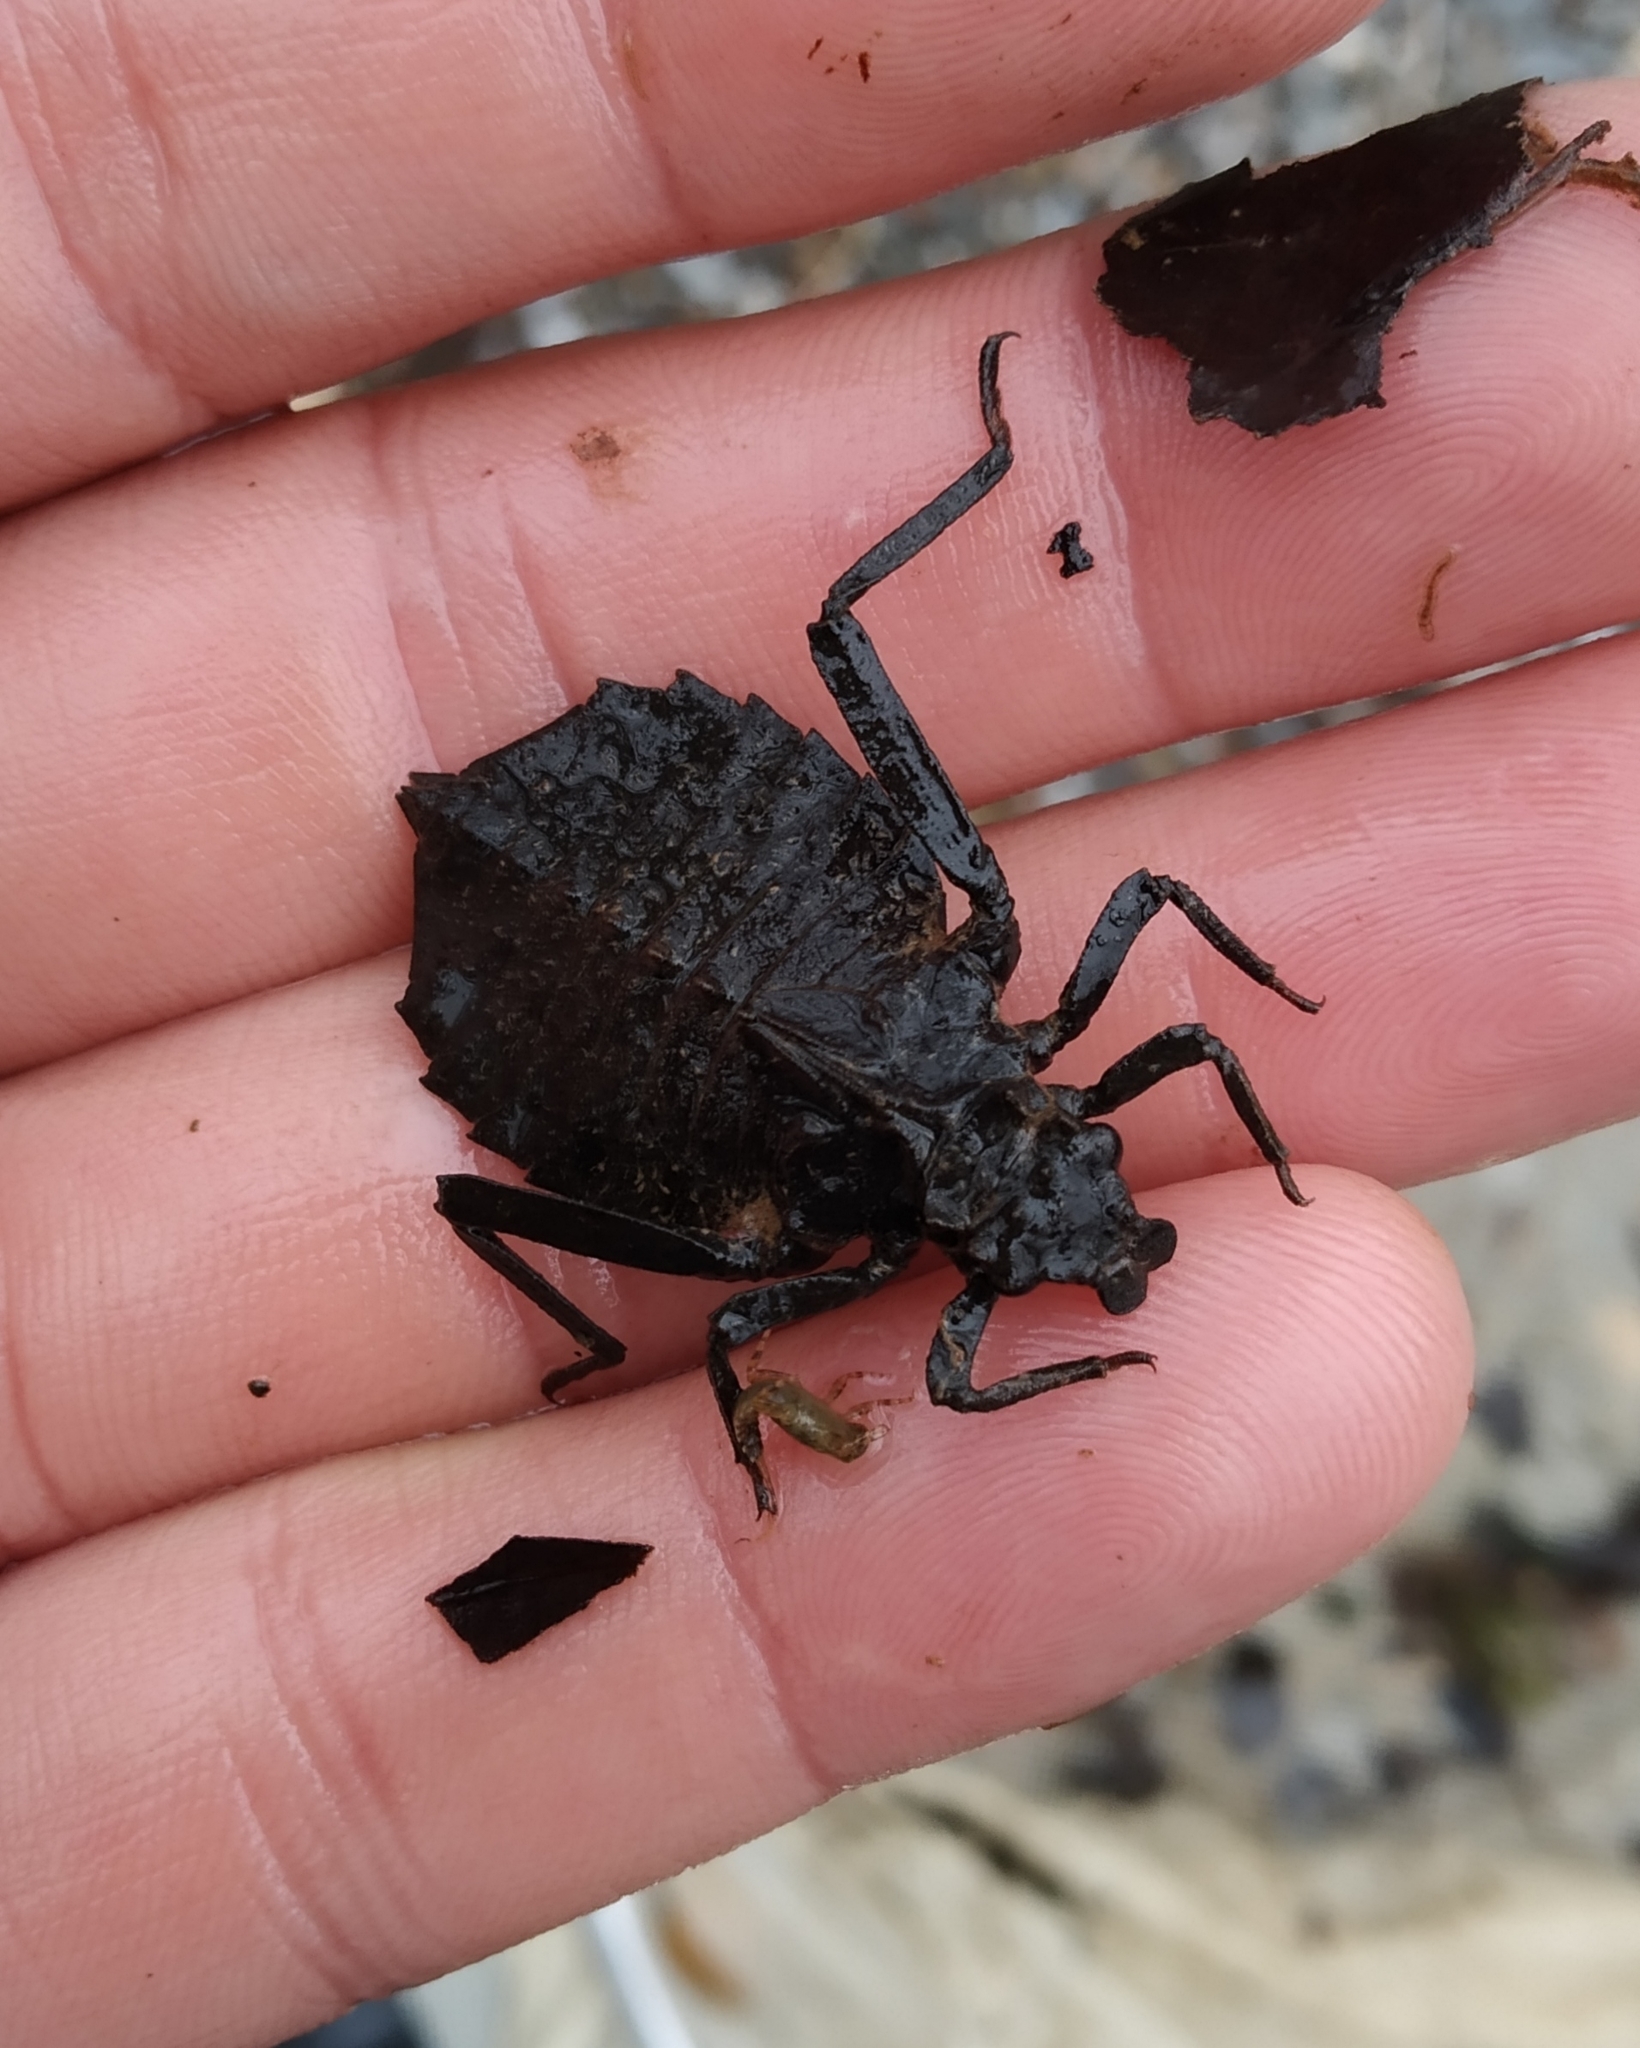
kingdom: Animalia
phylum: Arthropoda
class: Insecta
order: Odonata
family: Gomphidae
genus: Hagenius
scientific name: Hagenius brevistylus
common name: Dragonhunter
